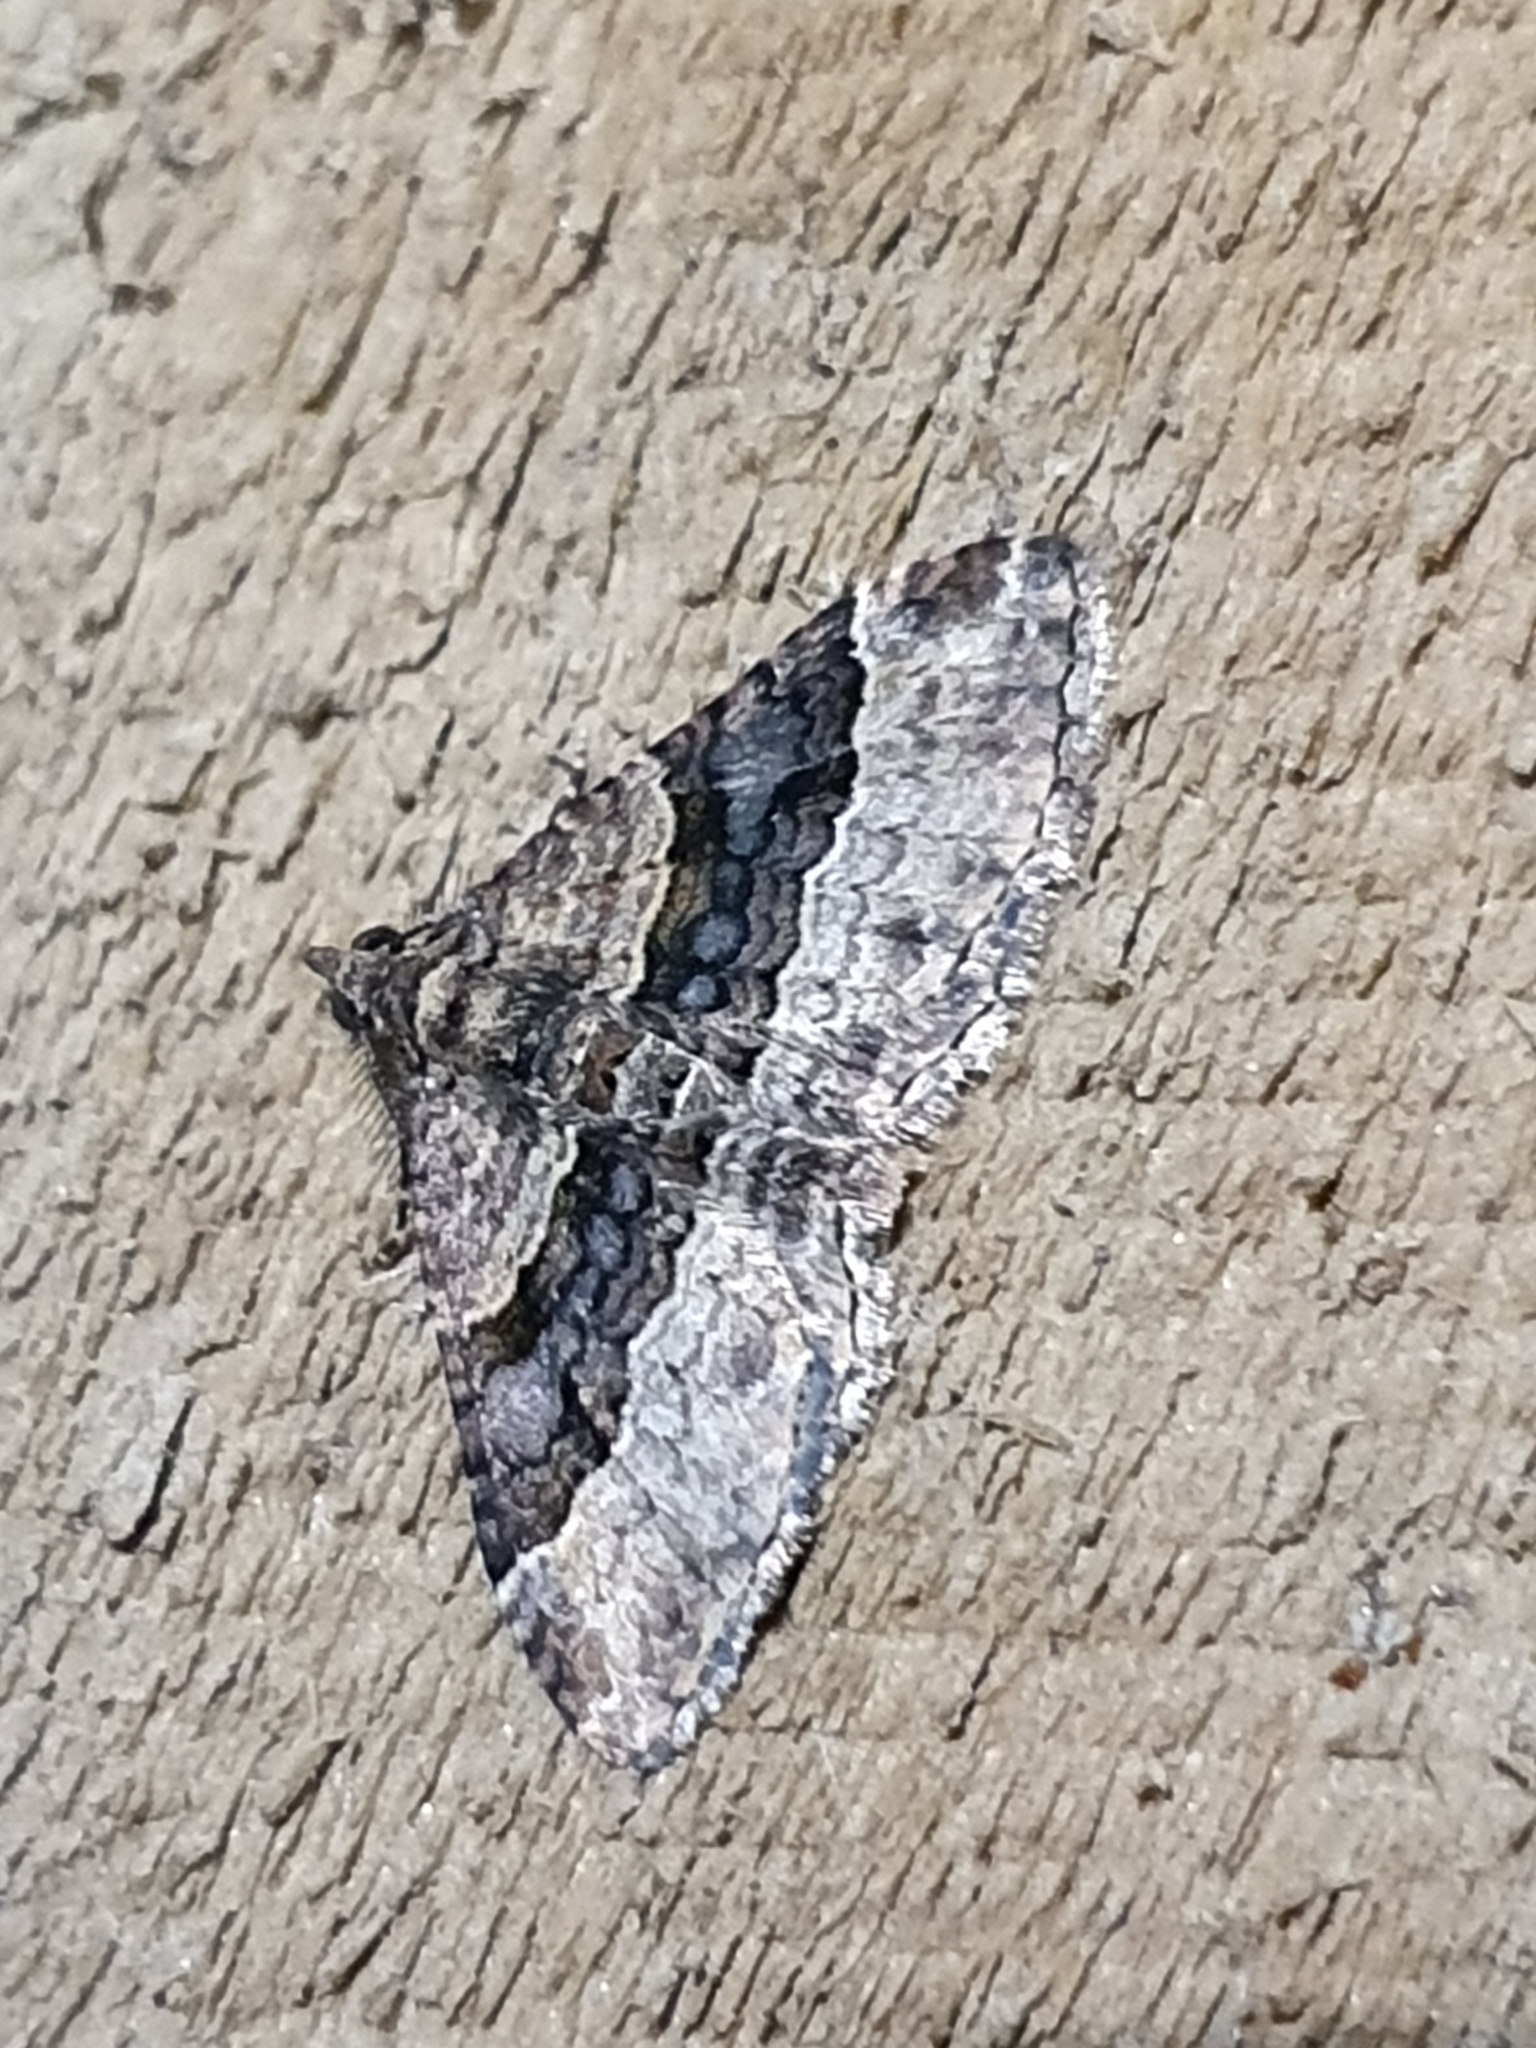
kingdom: Animalia
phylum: Arthropoda
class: Insecta
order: Lepidoptera
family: Geometridae
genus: Epyaxa
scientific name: Epyaxa lucidata
